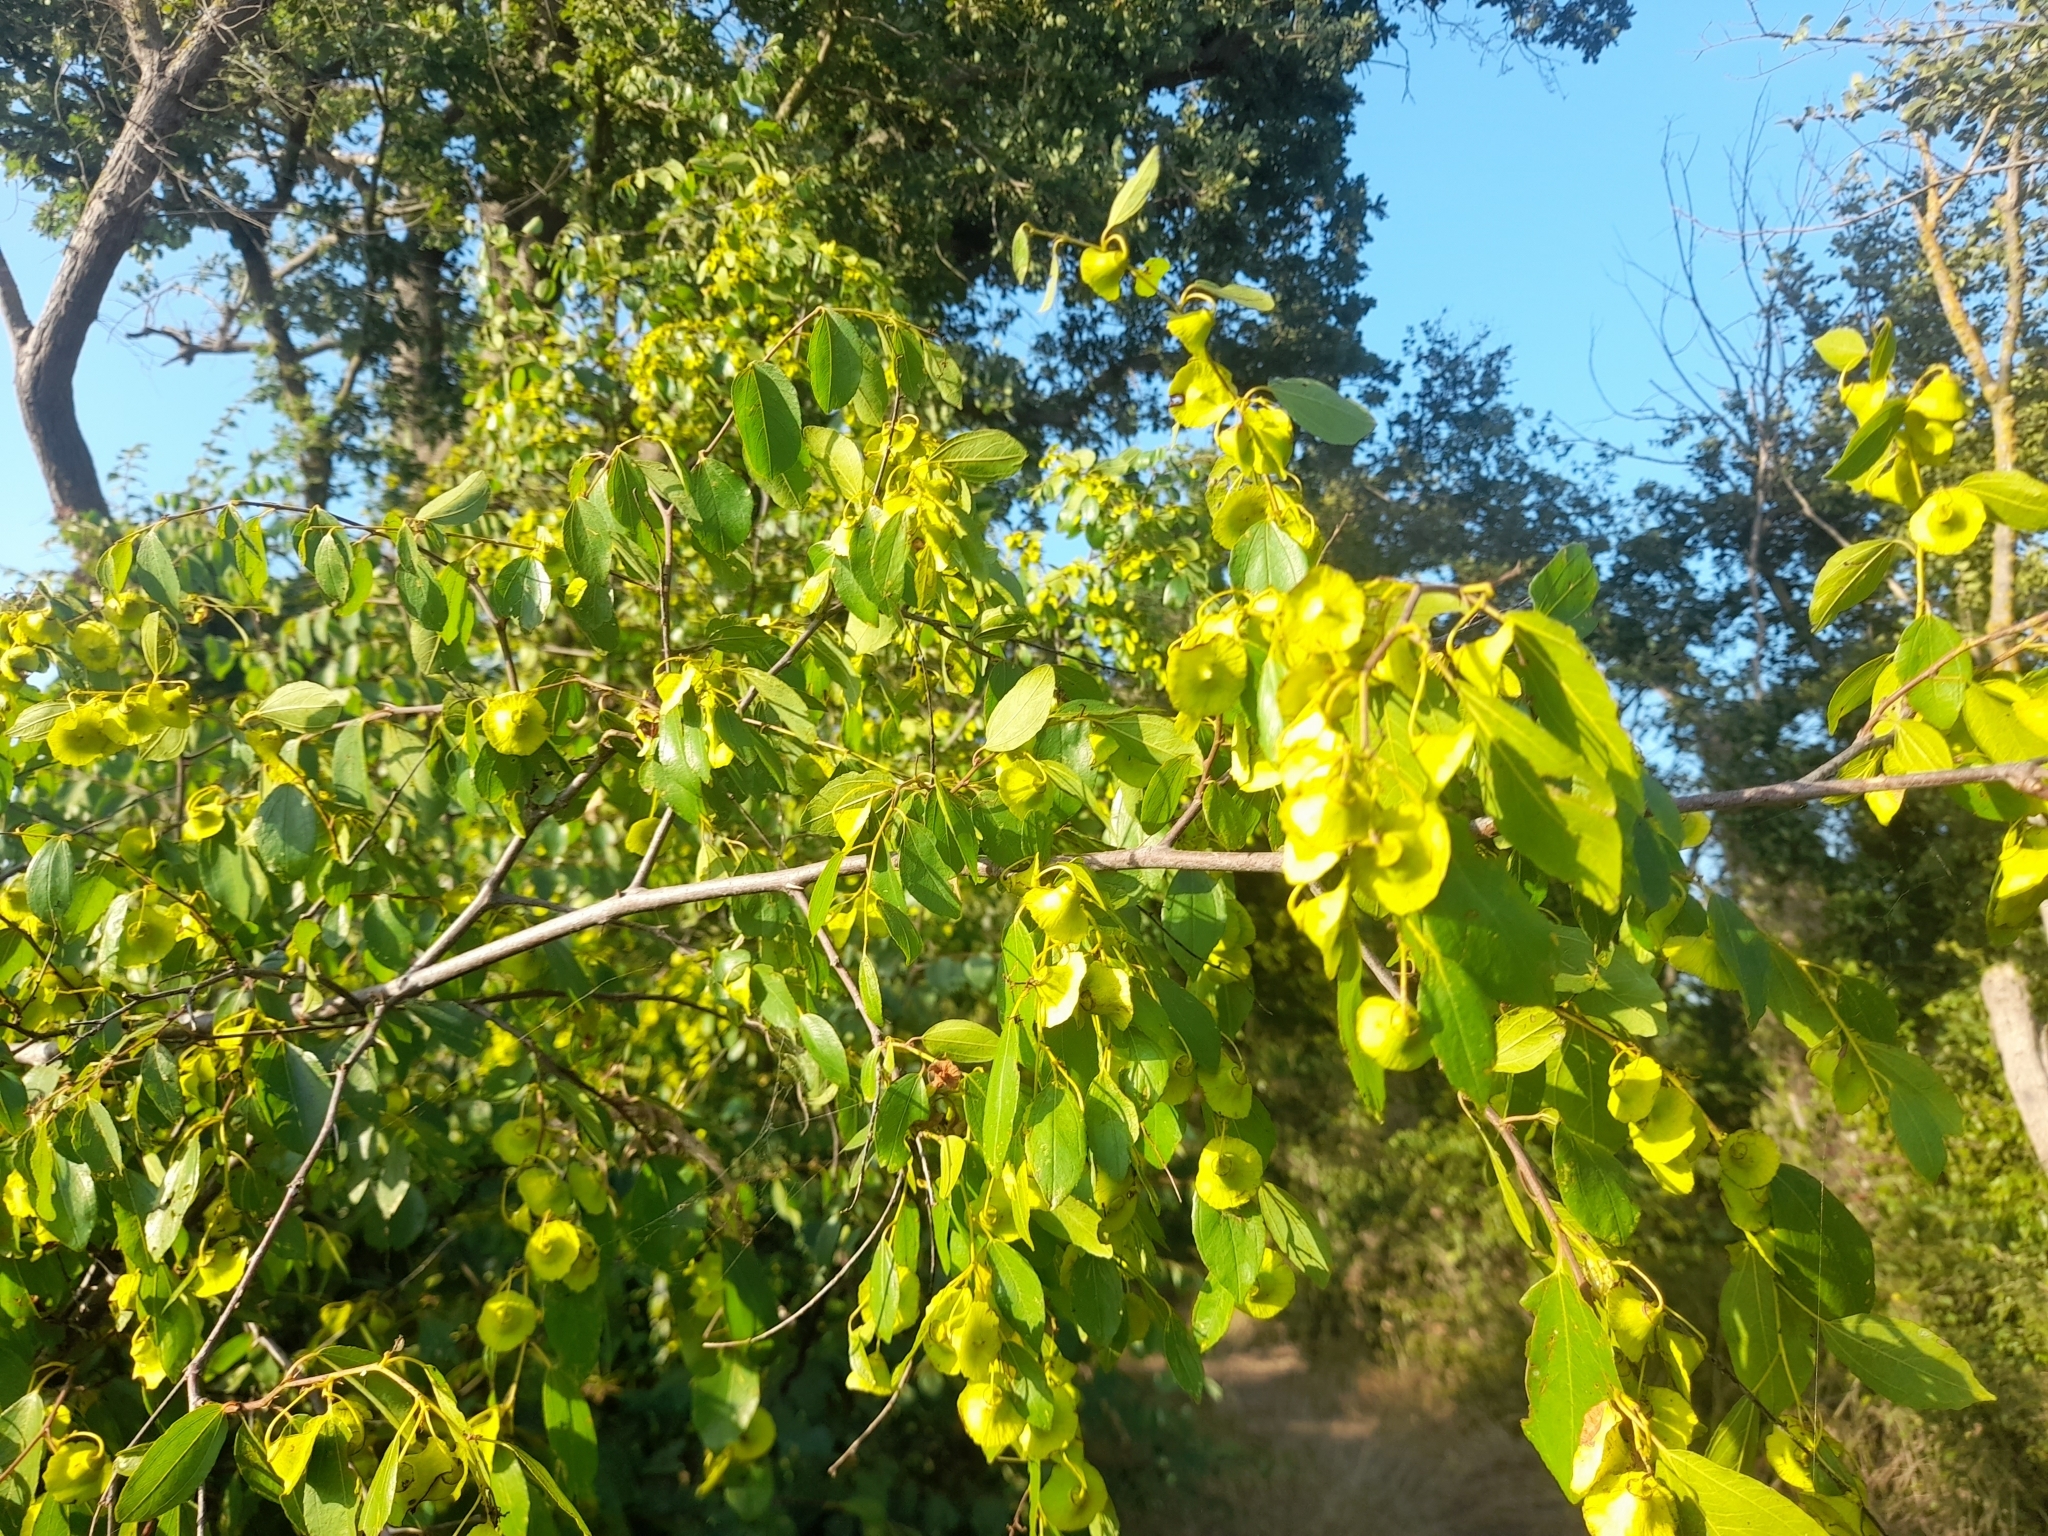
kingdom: Plantae
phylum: Tracheophyta
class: Magnoliopsida
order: Rosales
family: Rhamnaceae
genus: Paliurus
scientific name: Paliurus spina-christi
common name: Jeruselem thorn
